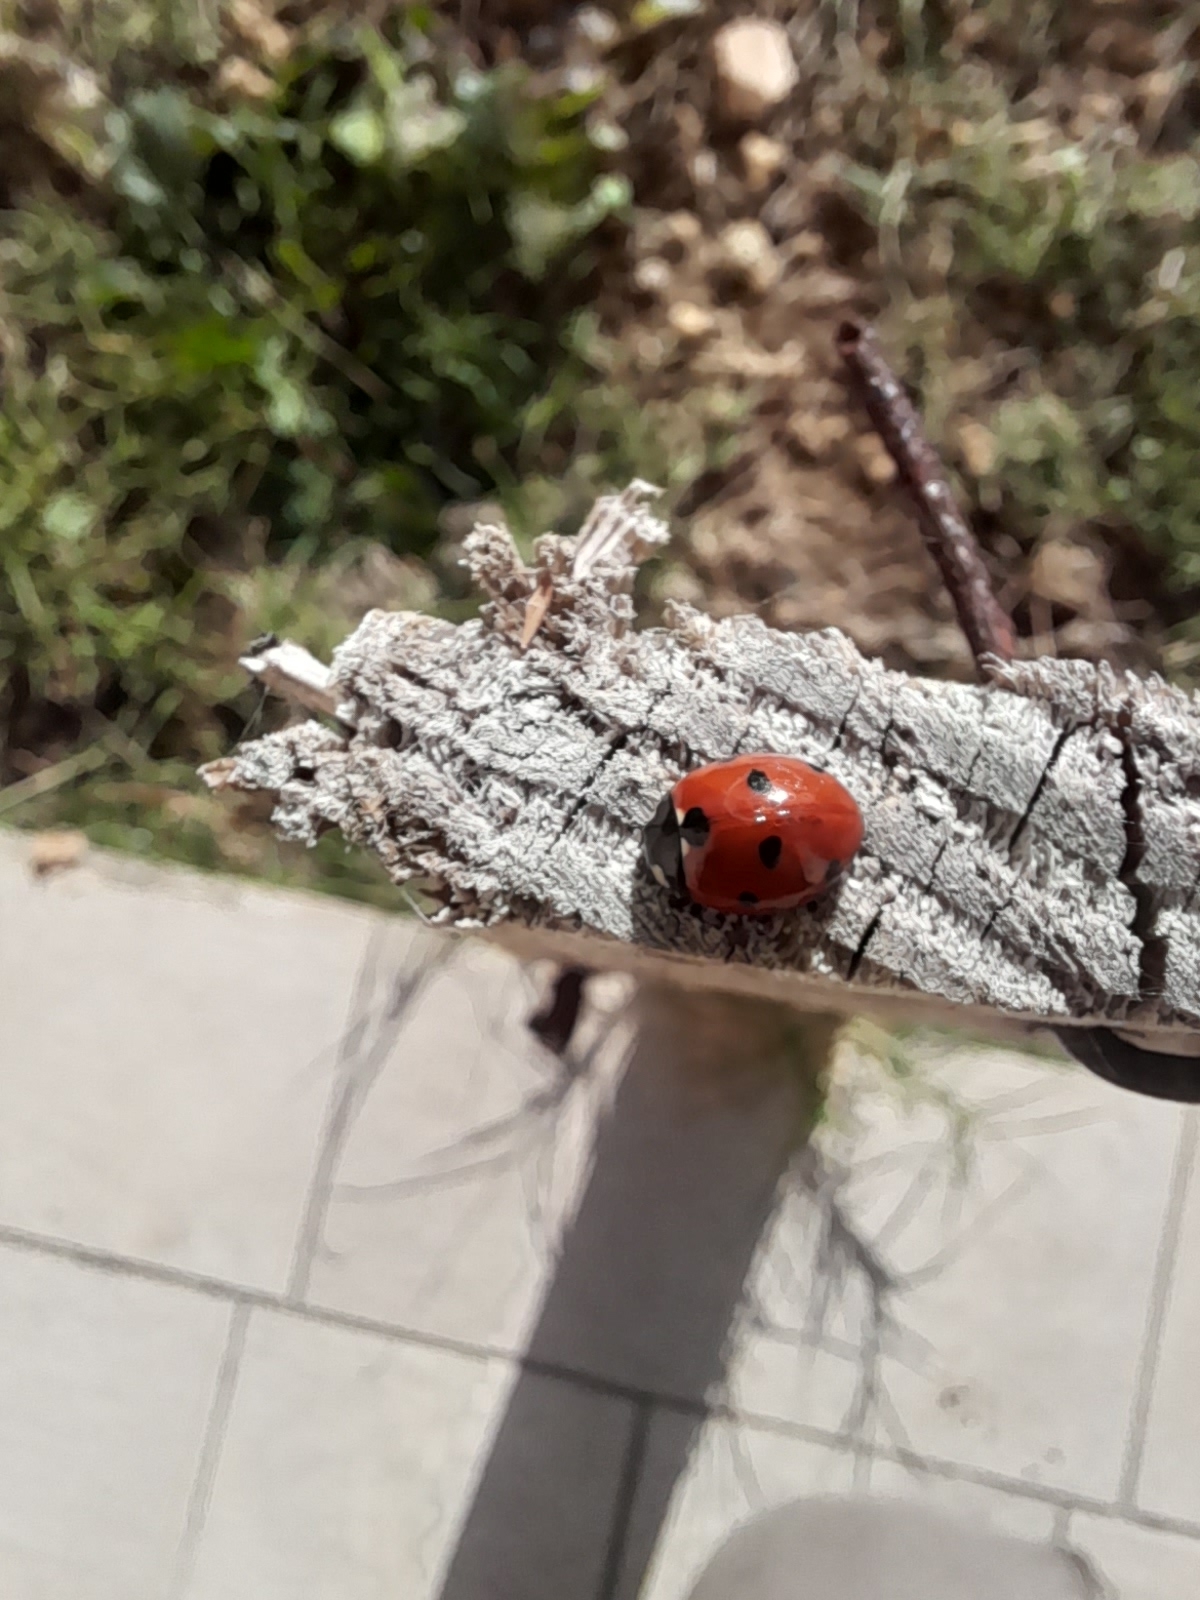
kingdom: Animalia
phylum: Arthropoda
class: Insecta
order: Coleoptera
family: Coccinellidae
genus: Coccinella
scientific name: Coccinella septempunctata
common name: Sevenspotted lady beetle
